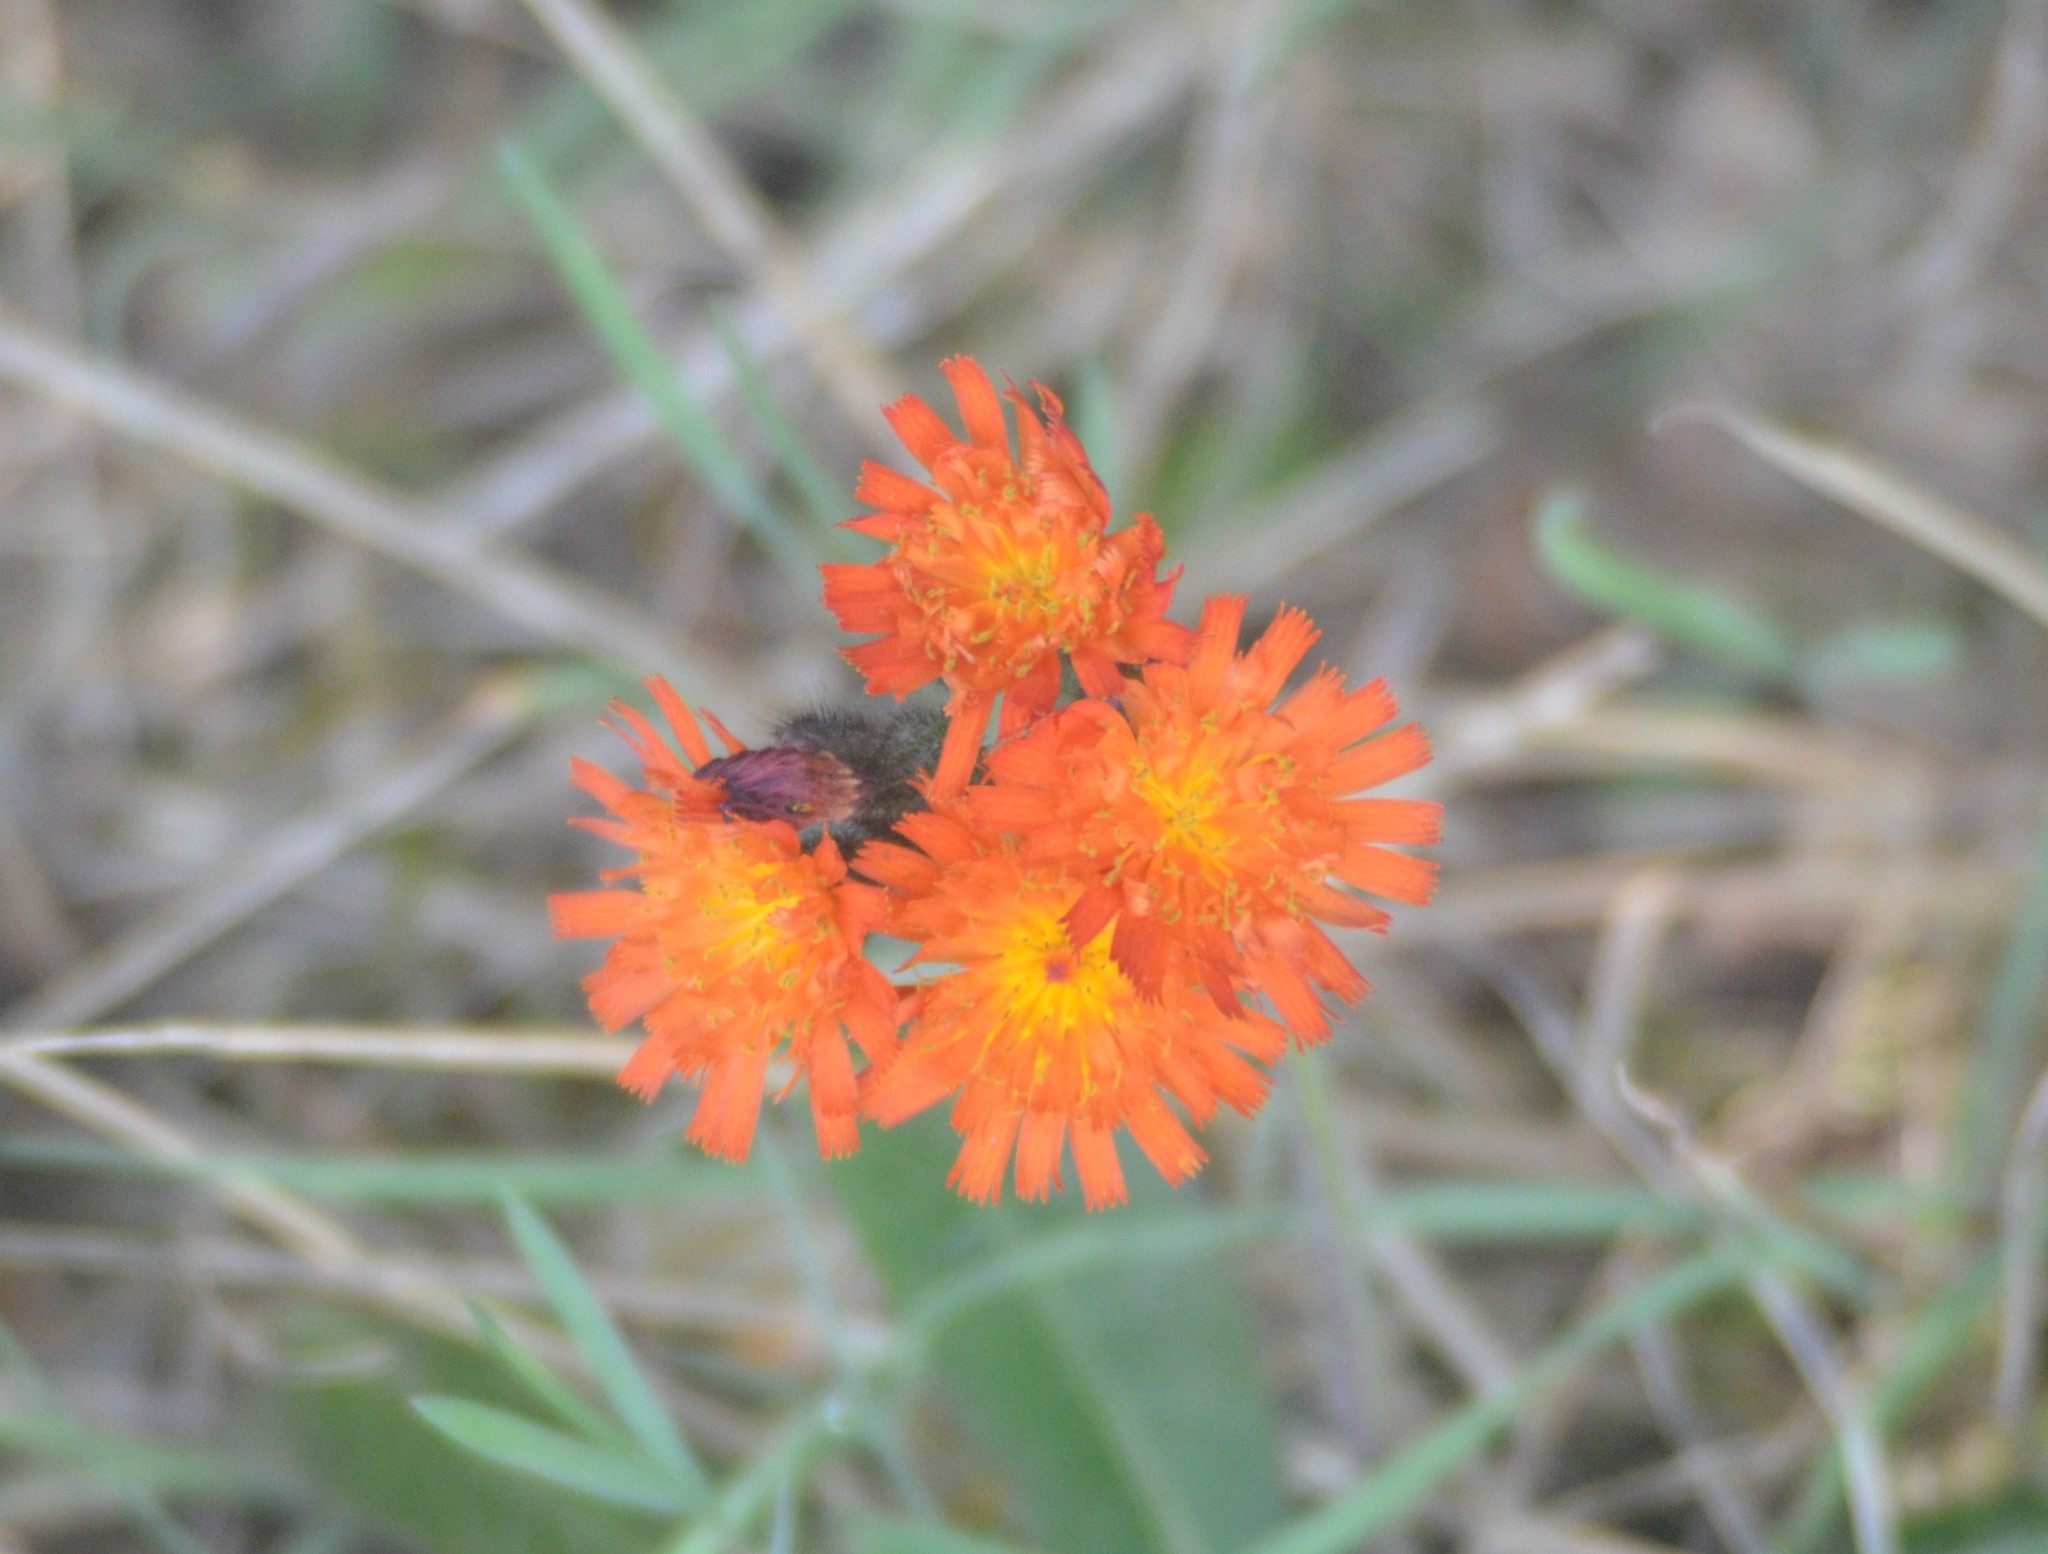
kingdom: Plantae
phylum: Tracheophyta
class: Magnoliopsida
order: Asterales
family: Asteraceae
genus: Pilosella
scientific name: Pilosella aurantiaca
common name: Fox-and-cubs
